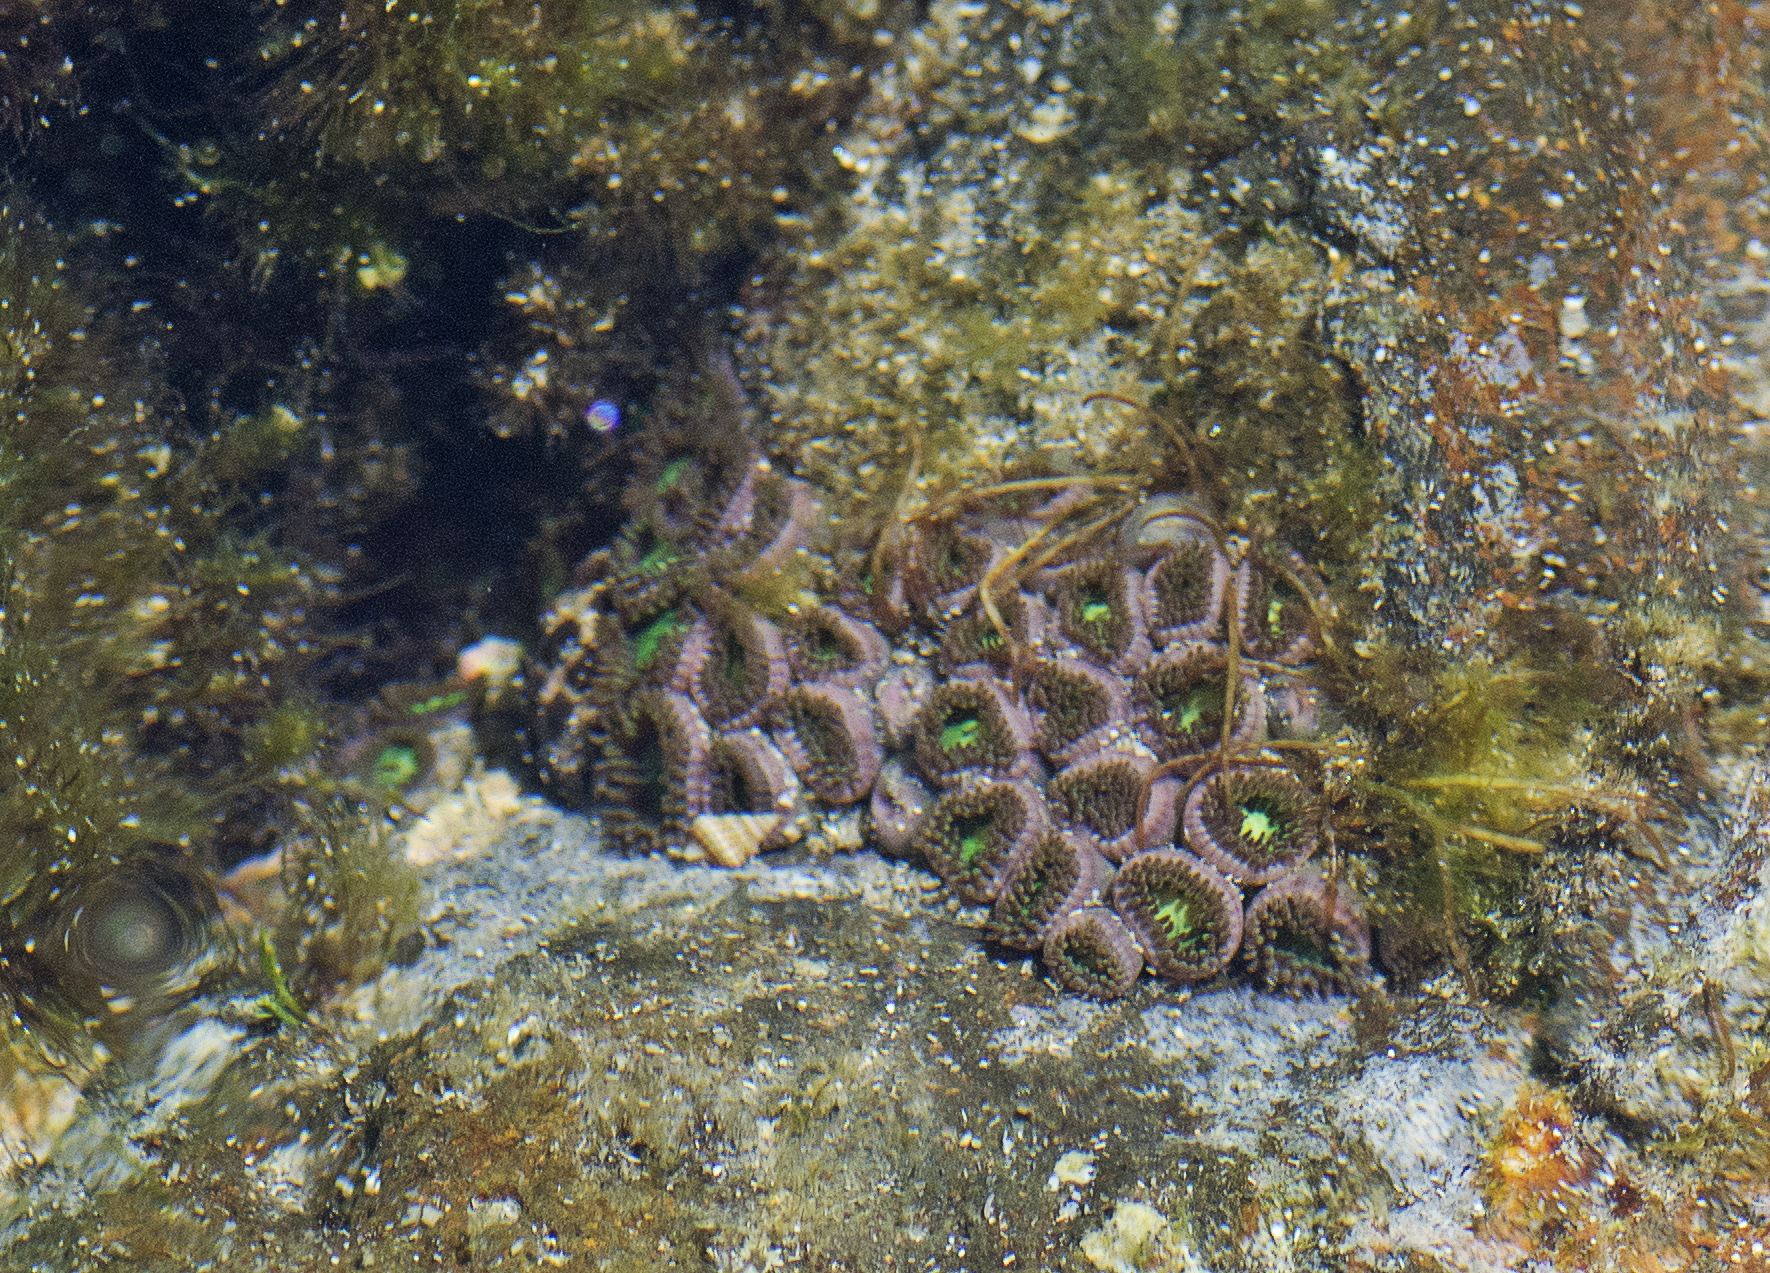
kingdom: Animalia
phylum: Cnidaria
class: Anthozoa
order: Zoantharia
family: Zoanthidae
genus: Zoanthus
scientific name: Zoanthus sansibaricus
